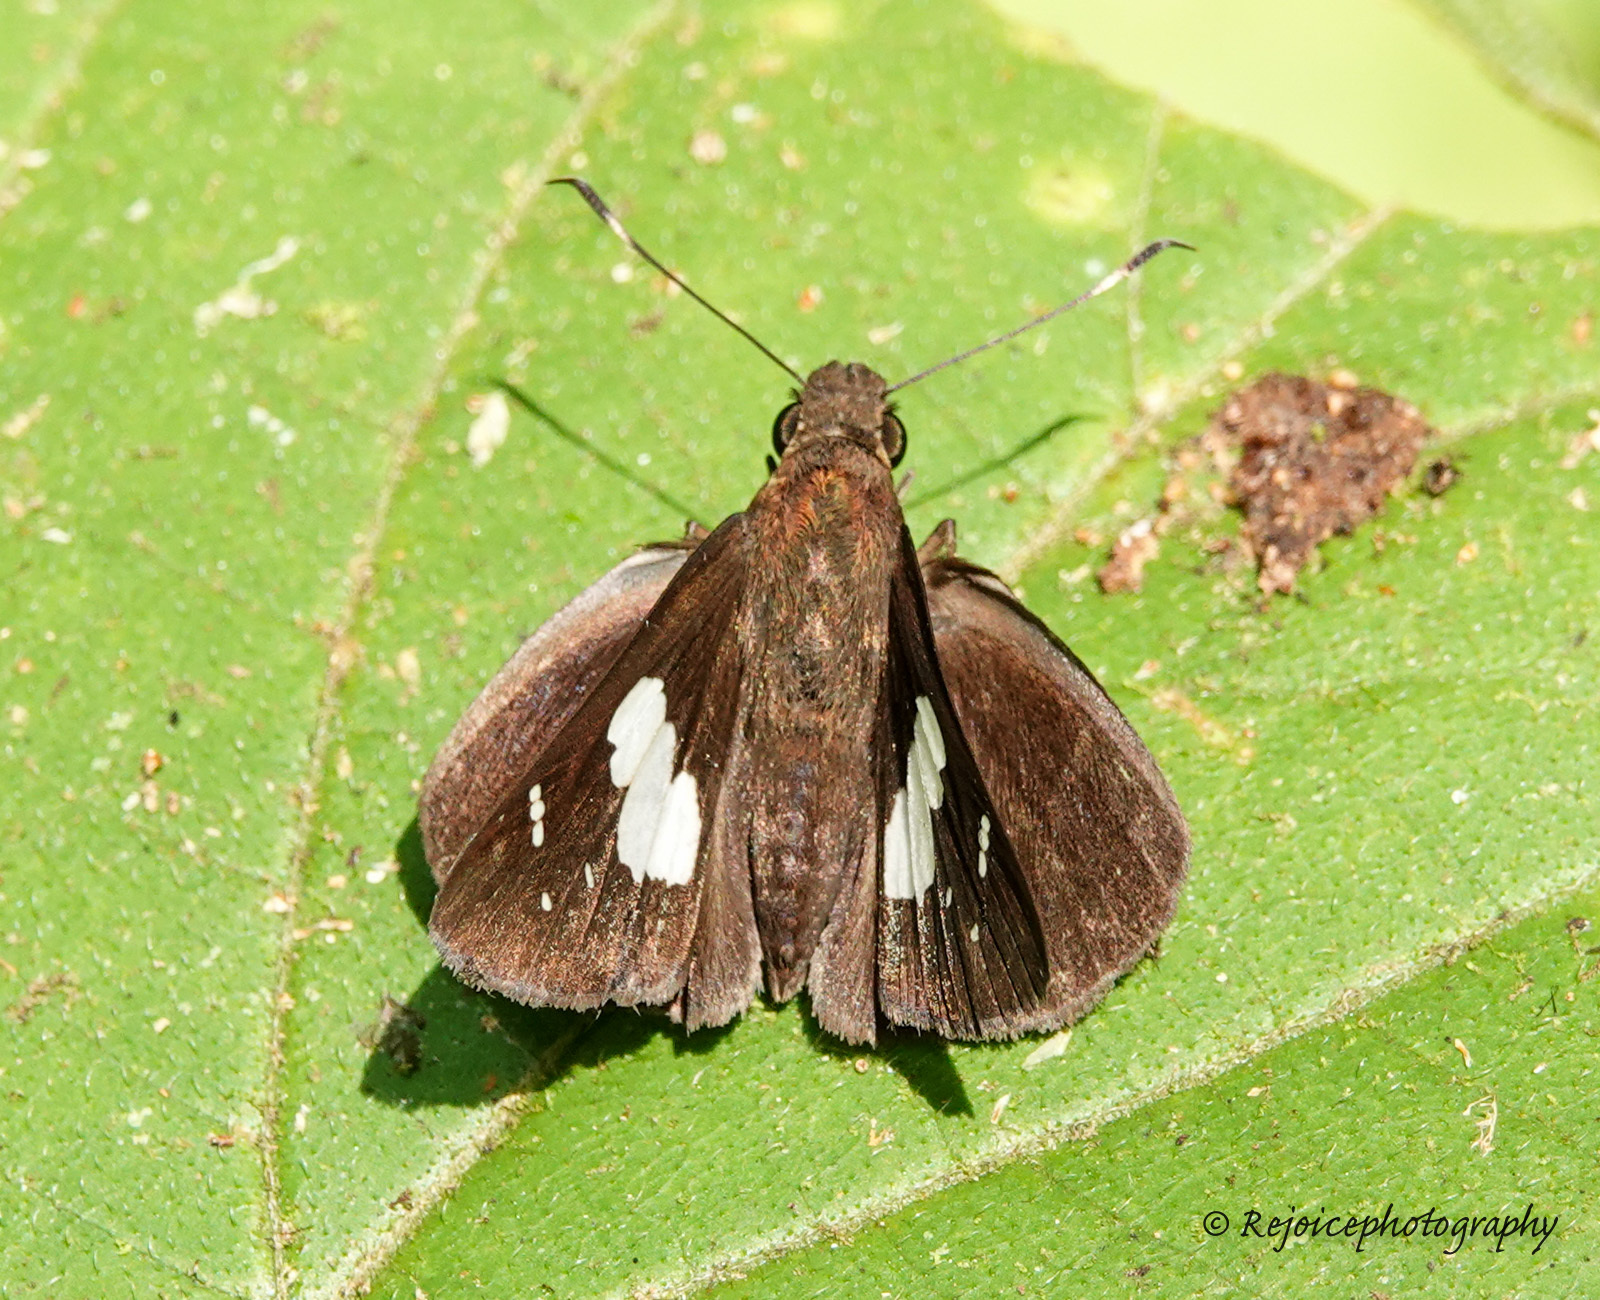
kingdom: Animalia
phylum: Arthropoda
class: Insecta
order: Lepidoptera
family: Hesperiidae
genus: Notocrypta
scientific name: Notocrypta curvifascia
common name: Restricted demon
